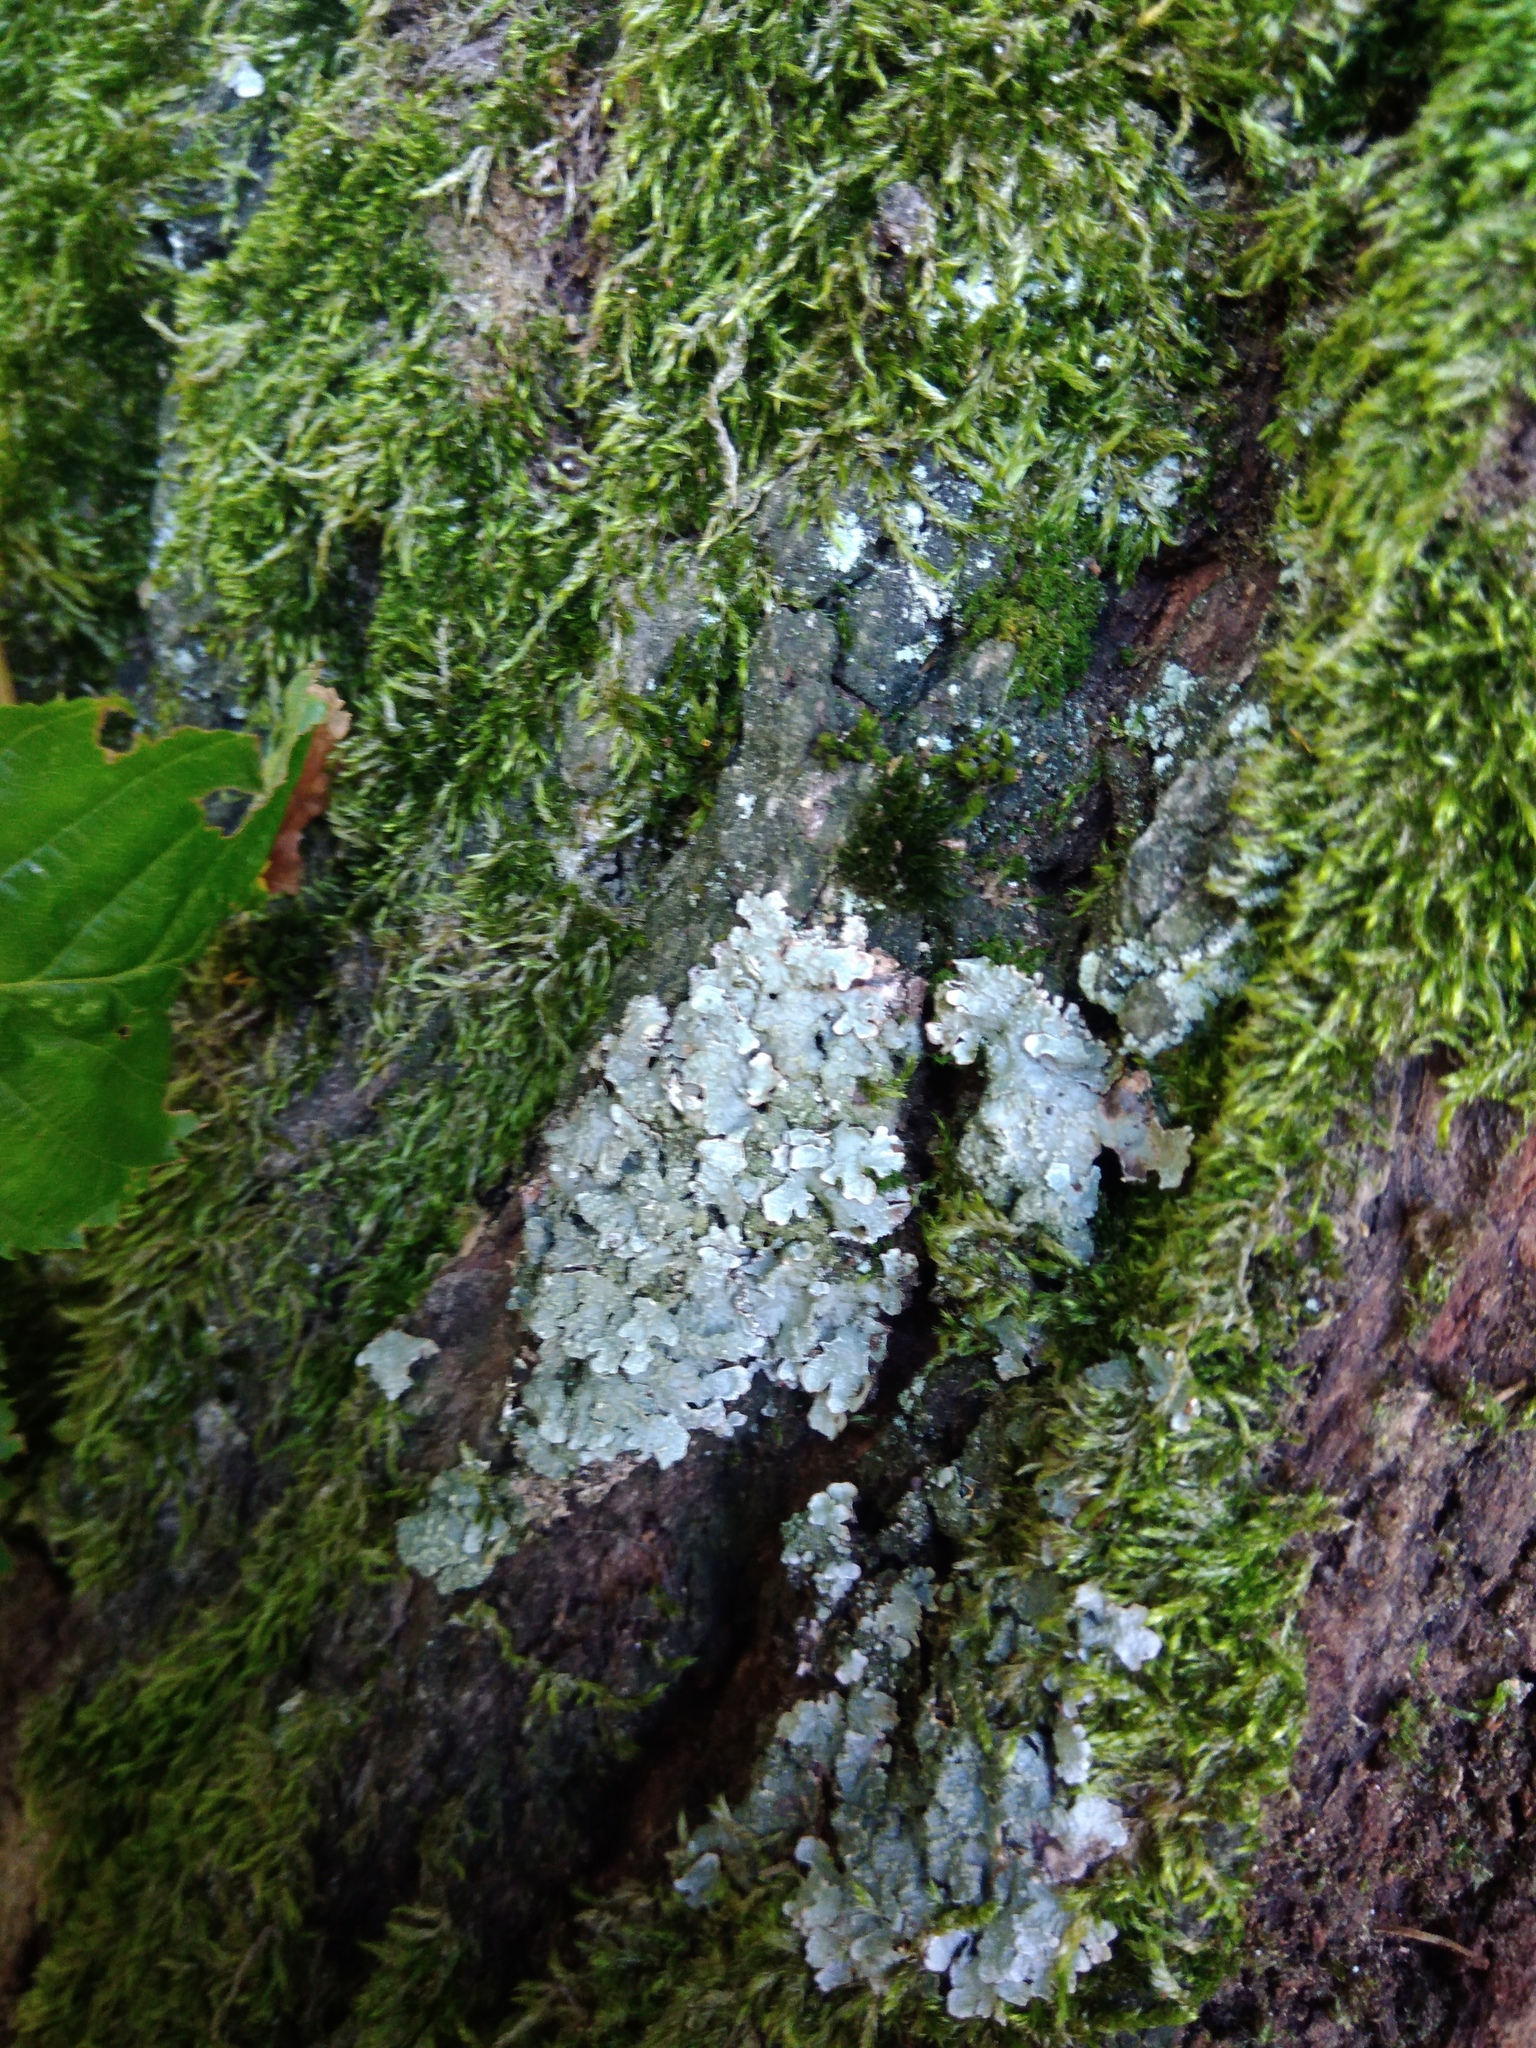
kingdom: Fungi
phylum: Ascomycota
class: Lecanoromycetes
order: Lecanorales
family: Parmeliaceae
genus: Parmelia
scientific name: Parmelia sulcata
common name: Netted shield lichen
